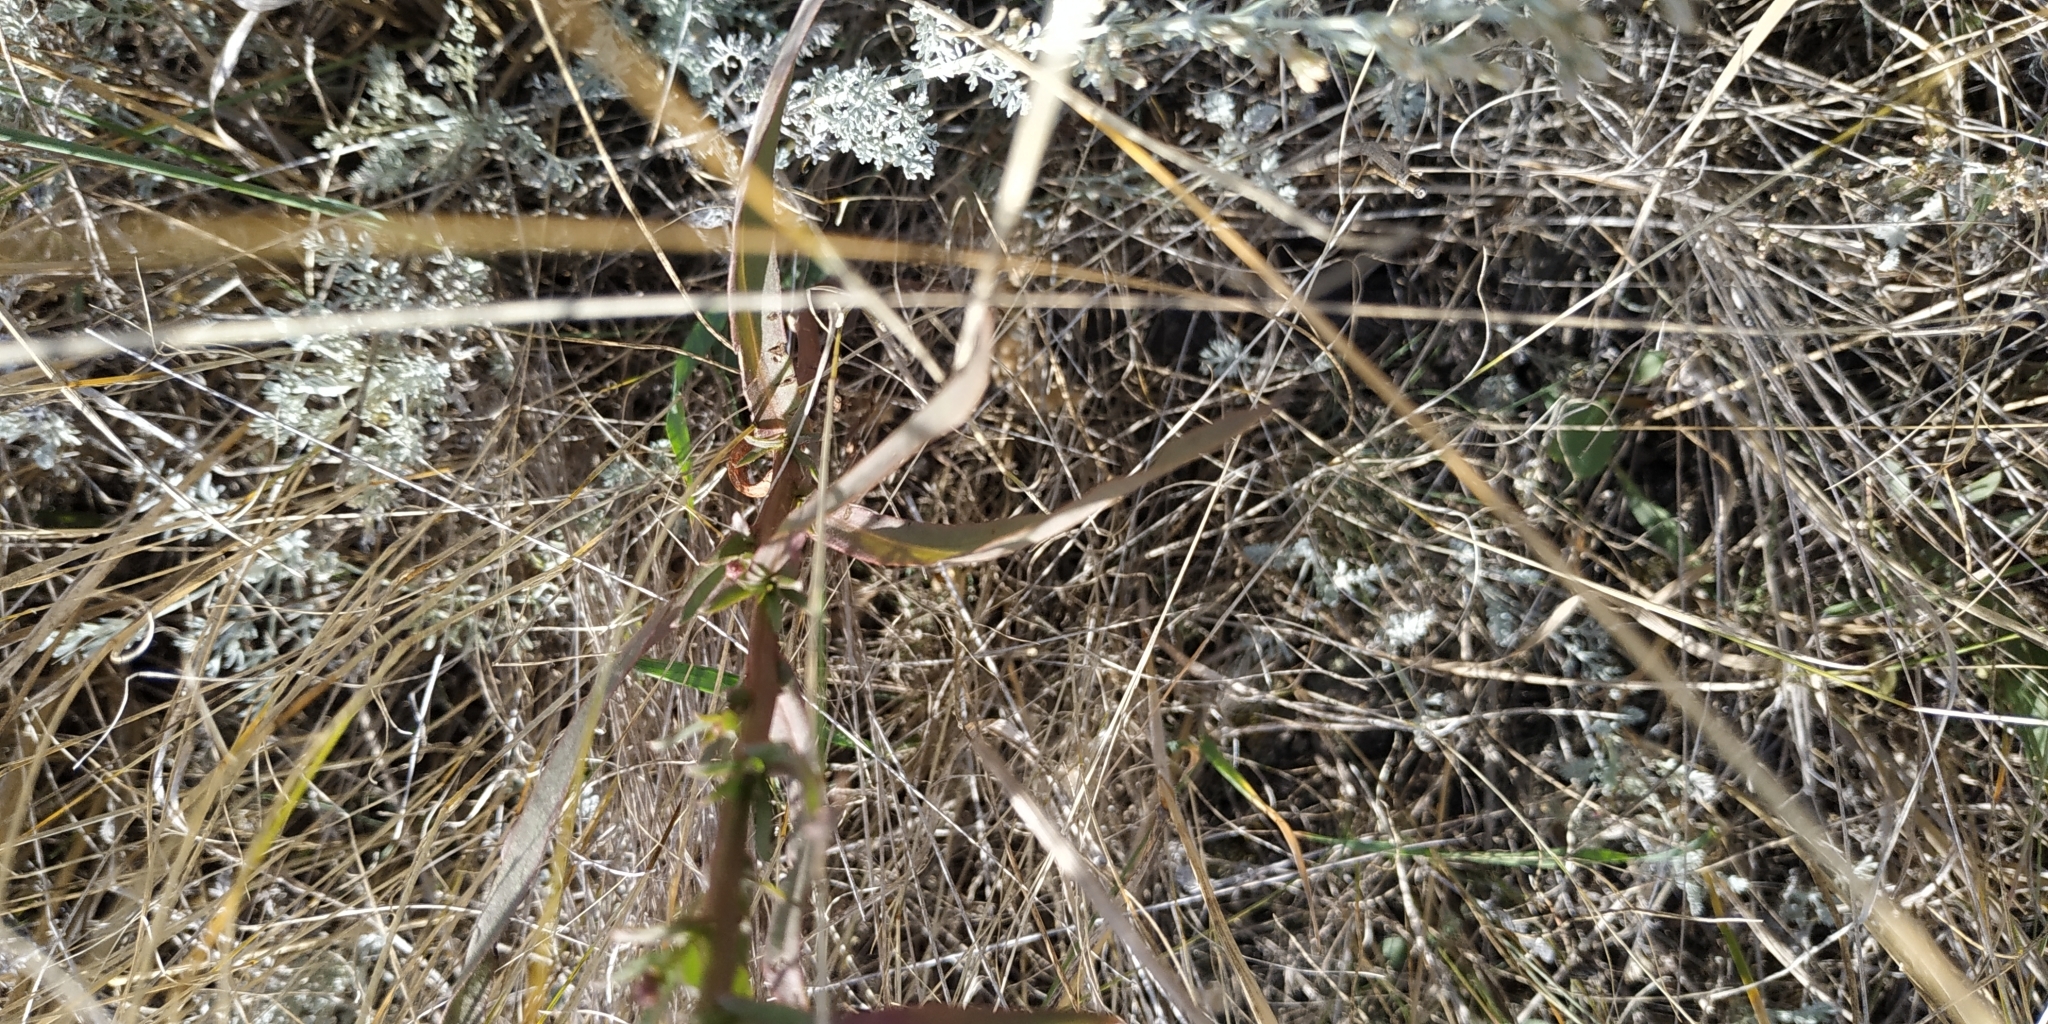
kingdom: Plantae
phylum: Tracheophyta
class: Magnoliopsida
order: Asterales
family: Asteraceae
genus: Tripolium
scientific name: Tripolium pannonicum
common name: Sea aster
